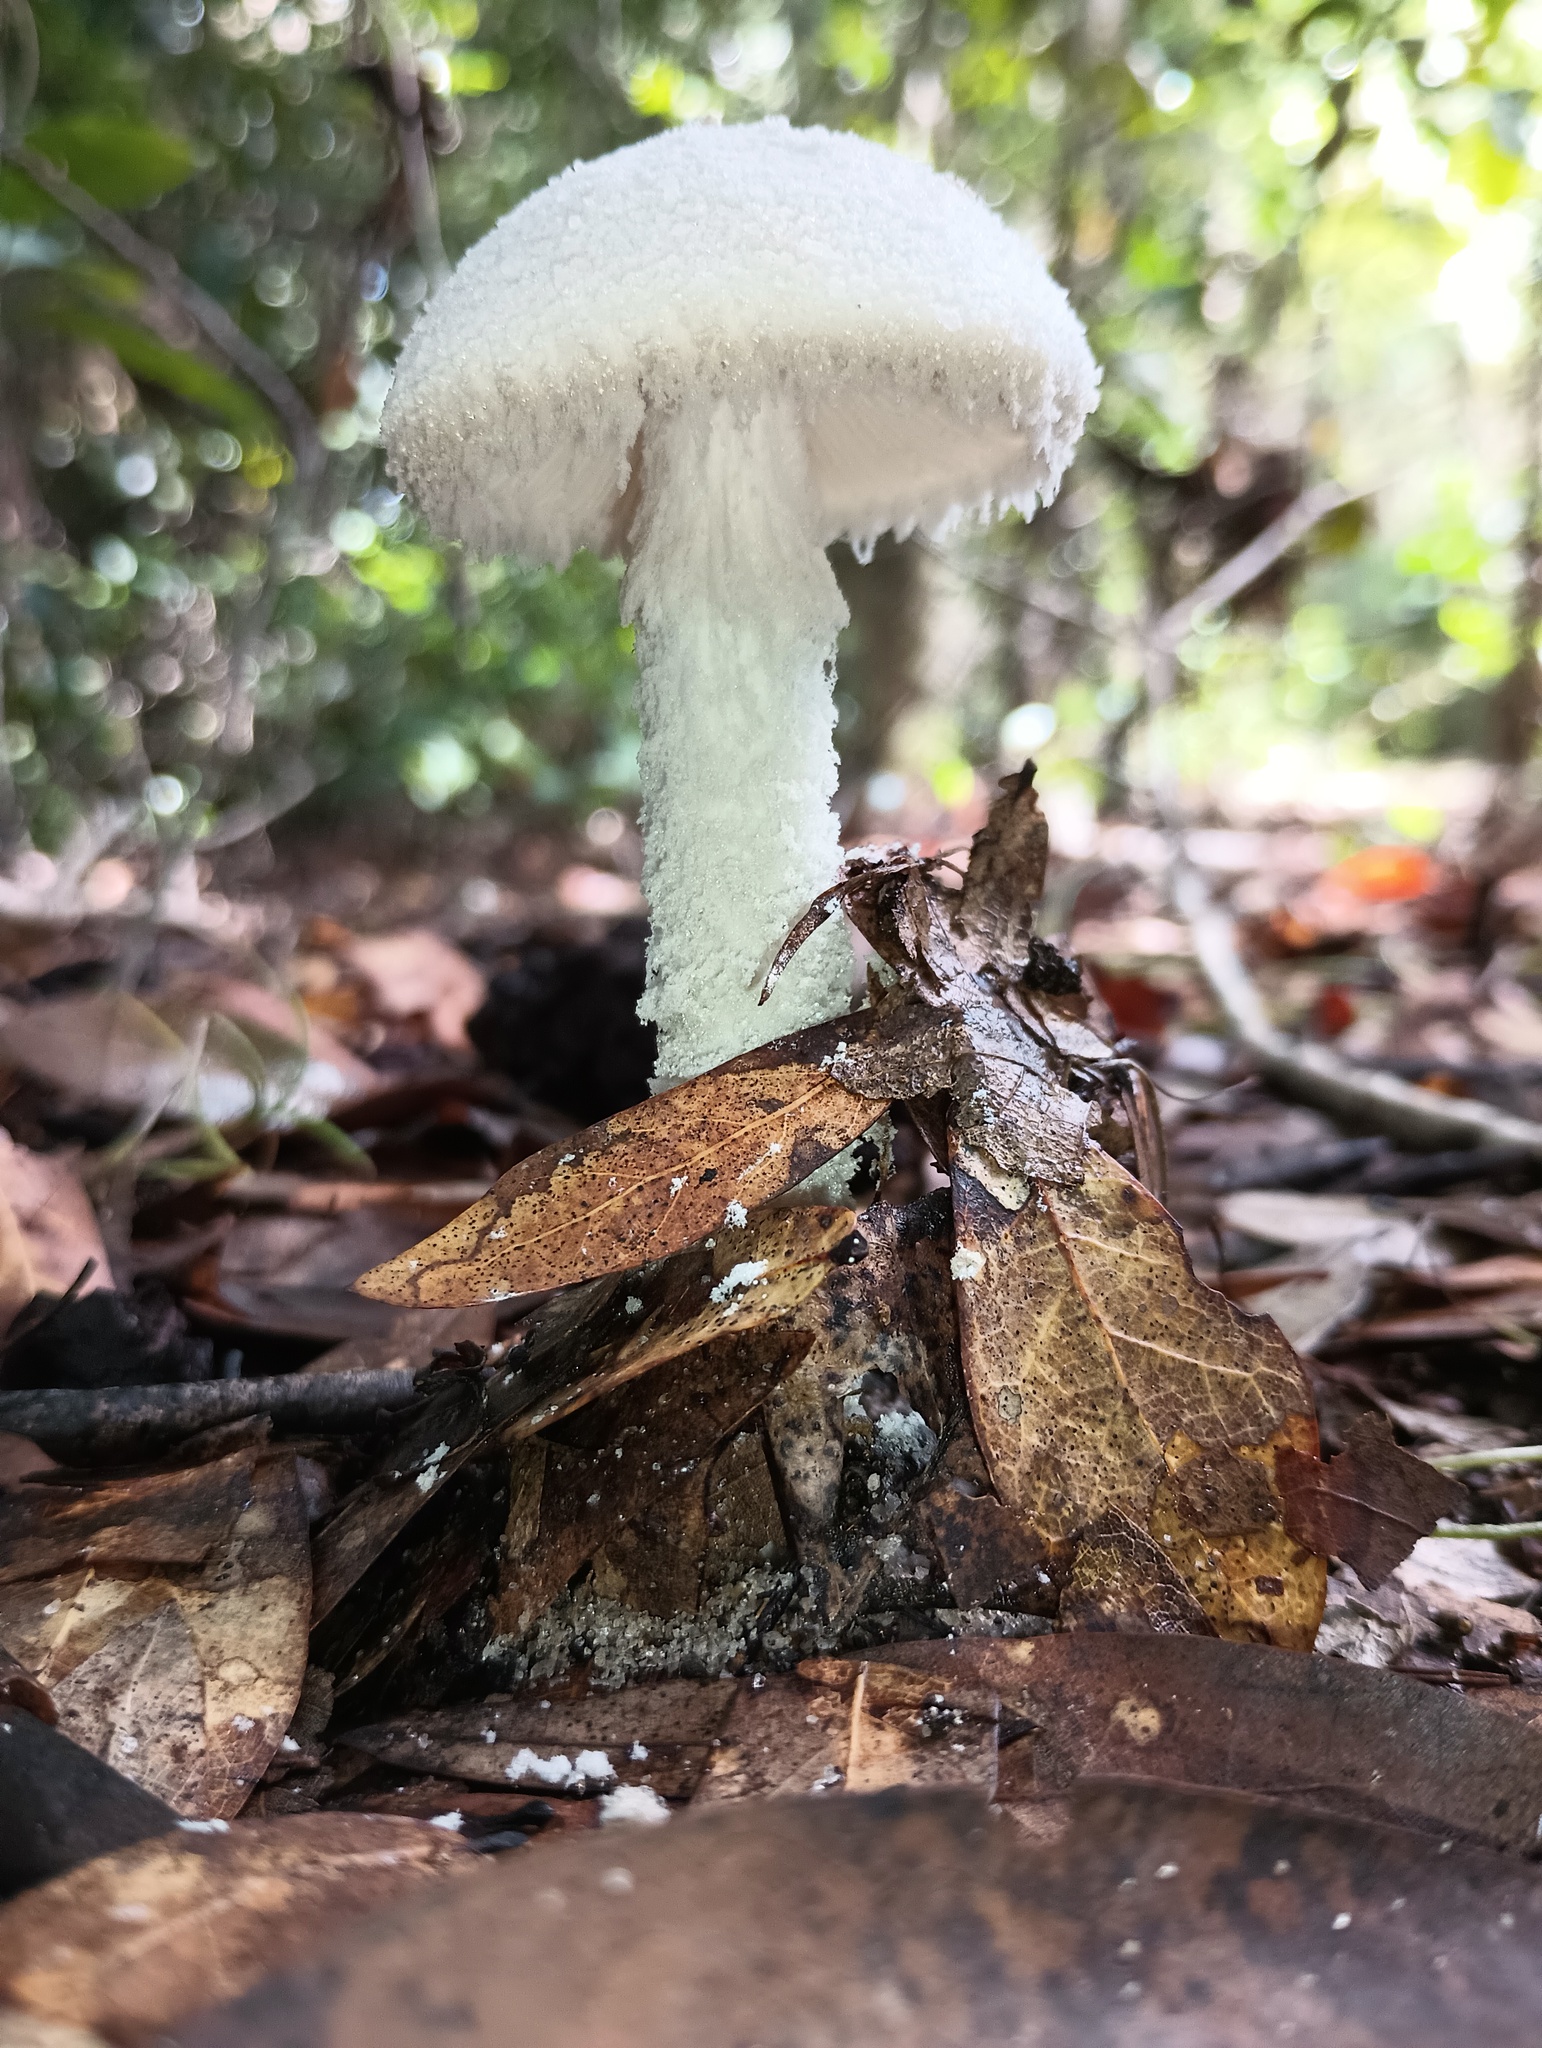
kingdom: Fungi
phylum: Basidiomycota
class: Agaricomycetes
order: Agaricales
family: Amanitaceae
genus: Amanita
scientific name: Amanita
